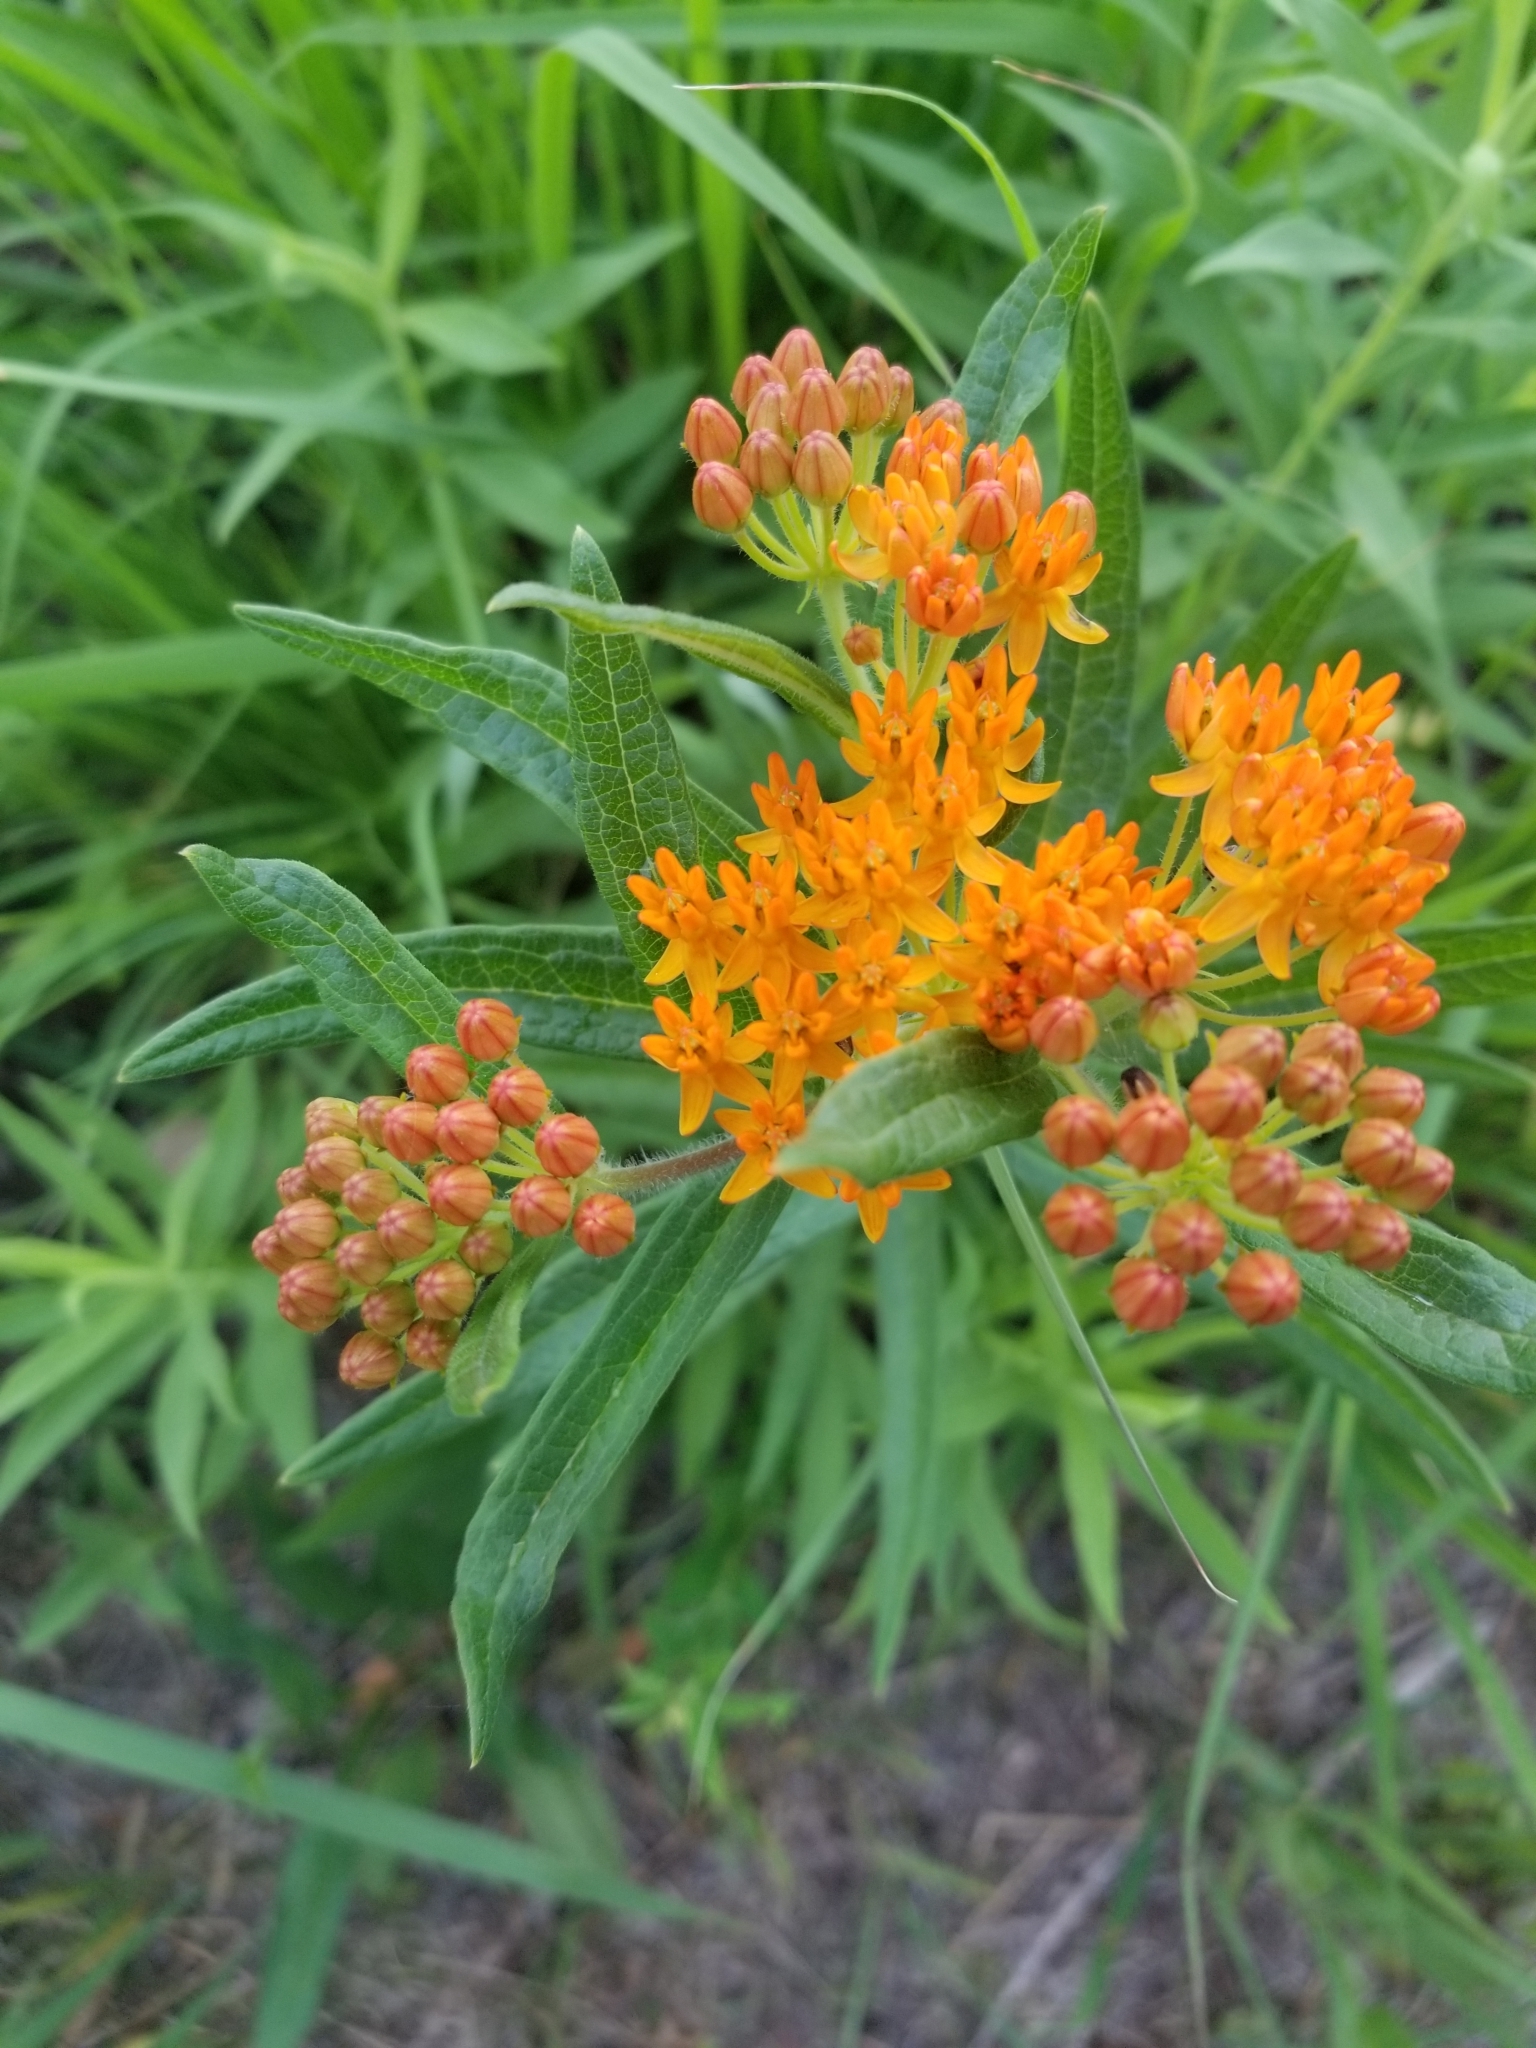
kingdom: Plantae
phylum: Tracheophyta
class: Magnoliopsida
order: Gentianales
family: Apocynaceae
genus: Asclepias
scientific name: Asclepias tuberosa
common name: Butterfly milkweed
